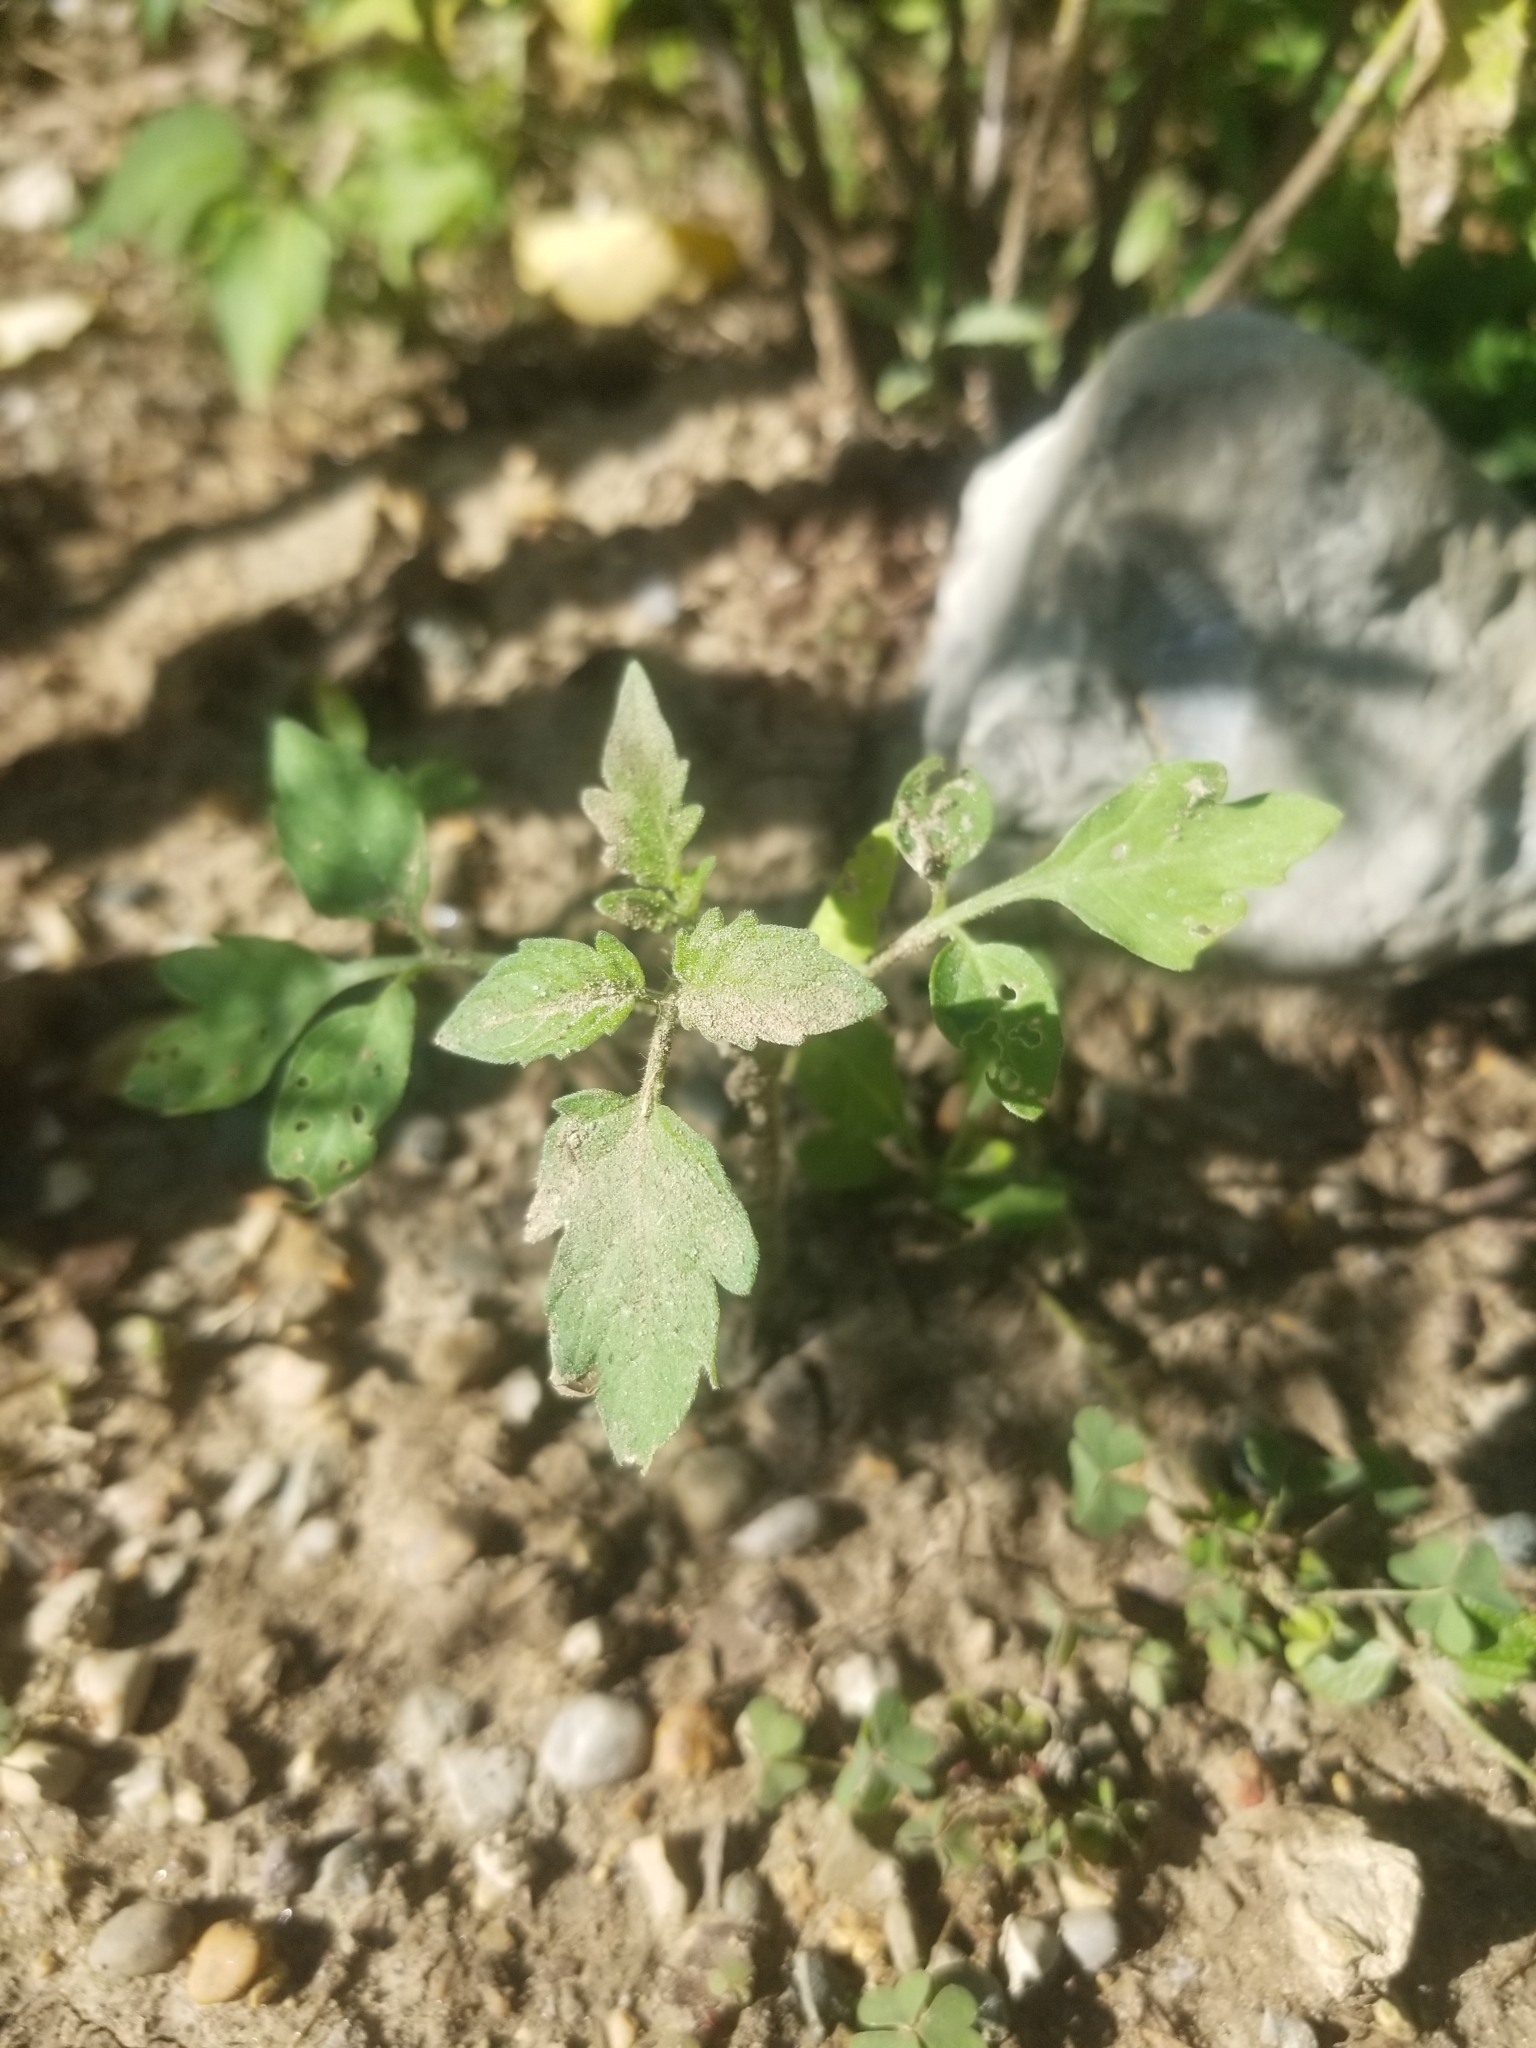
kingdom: Plantae
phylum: Tracheophyta
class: Magnoliopsida
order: Solanales
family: Solanaceae
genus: Solanum
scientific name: Solanum lycopersicum
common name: Garden tomato
